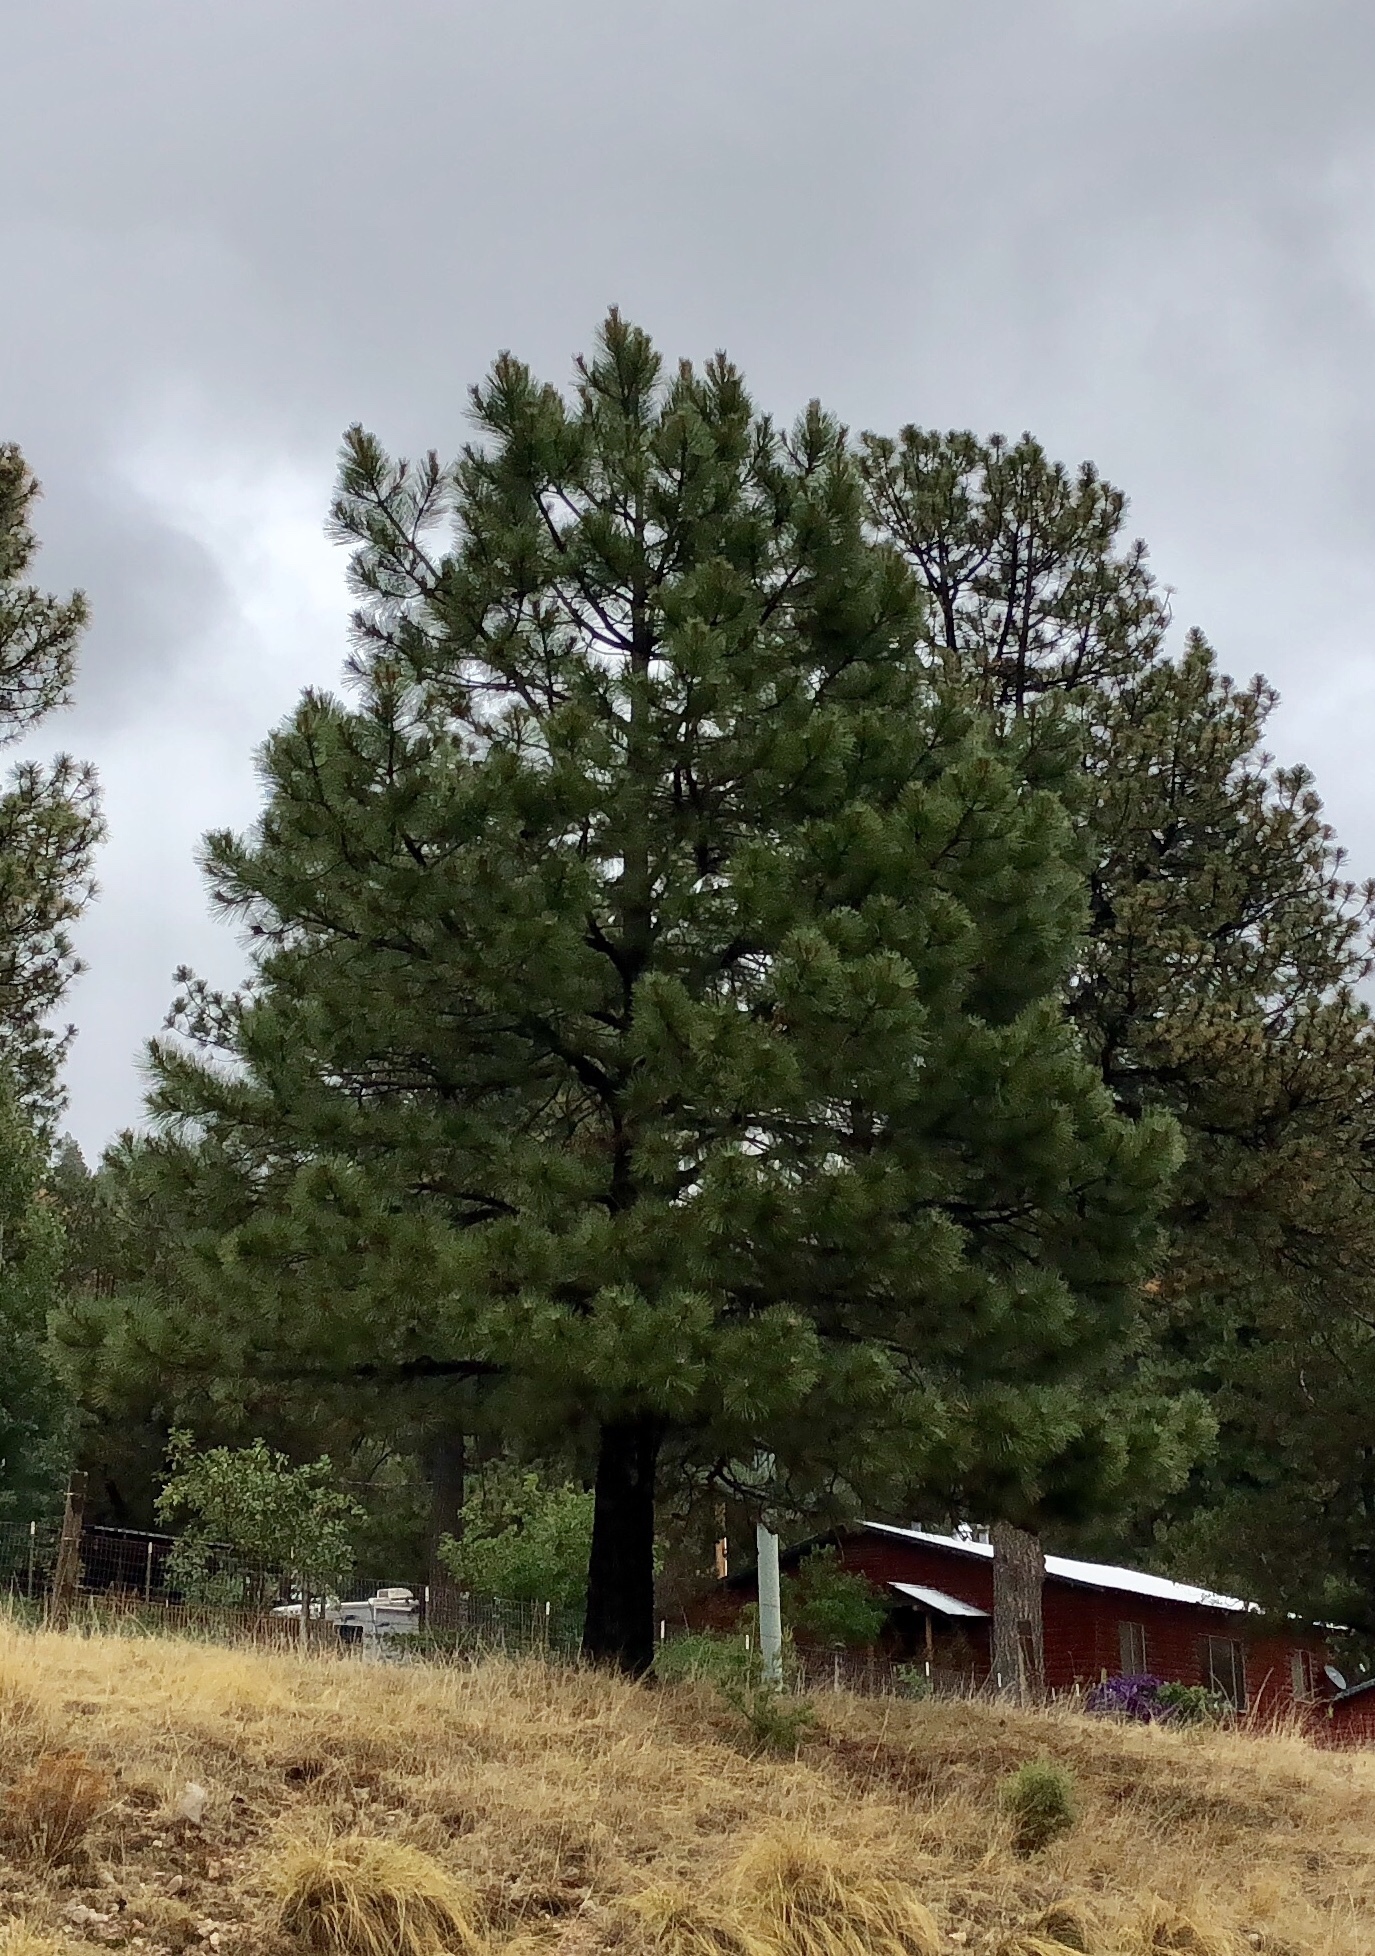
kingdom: Plantae
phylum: Tracheophyta
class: Pinopsida
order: Pinales
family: Pinaceae
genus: Pinus
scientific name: Pinus ponderosa
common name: Western yellow-pine
